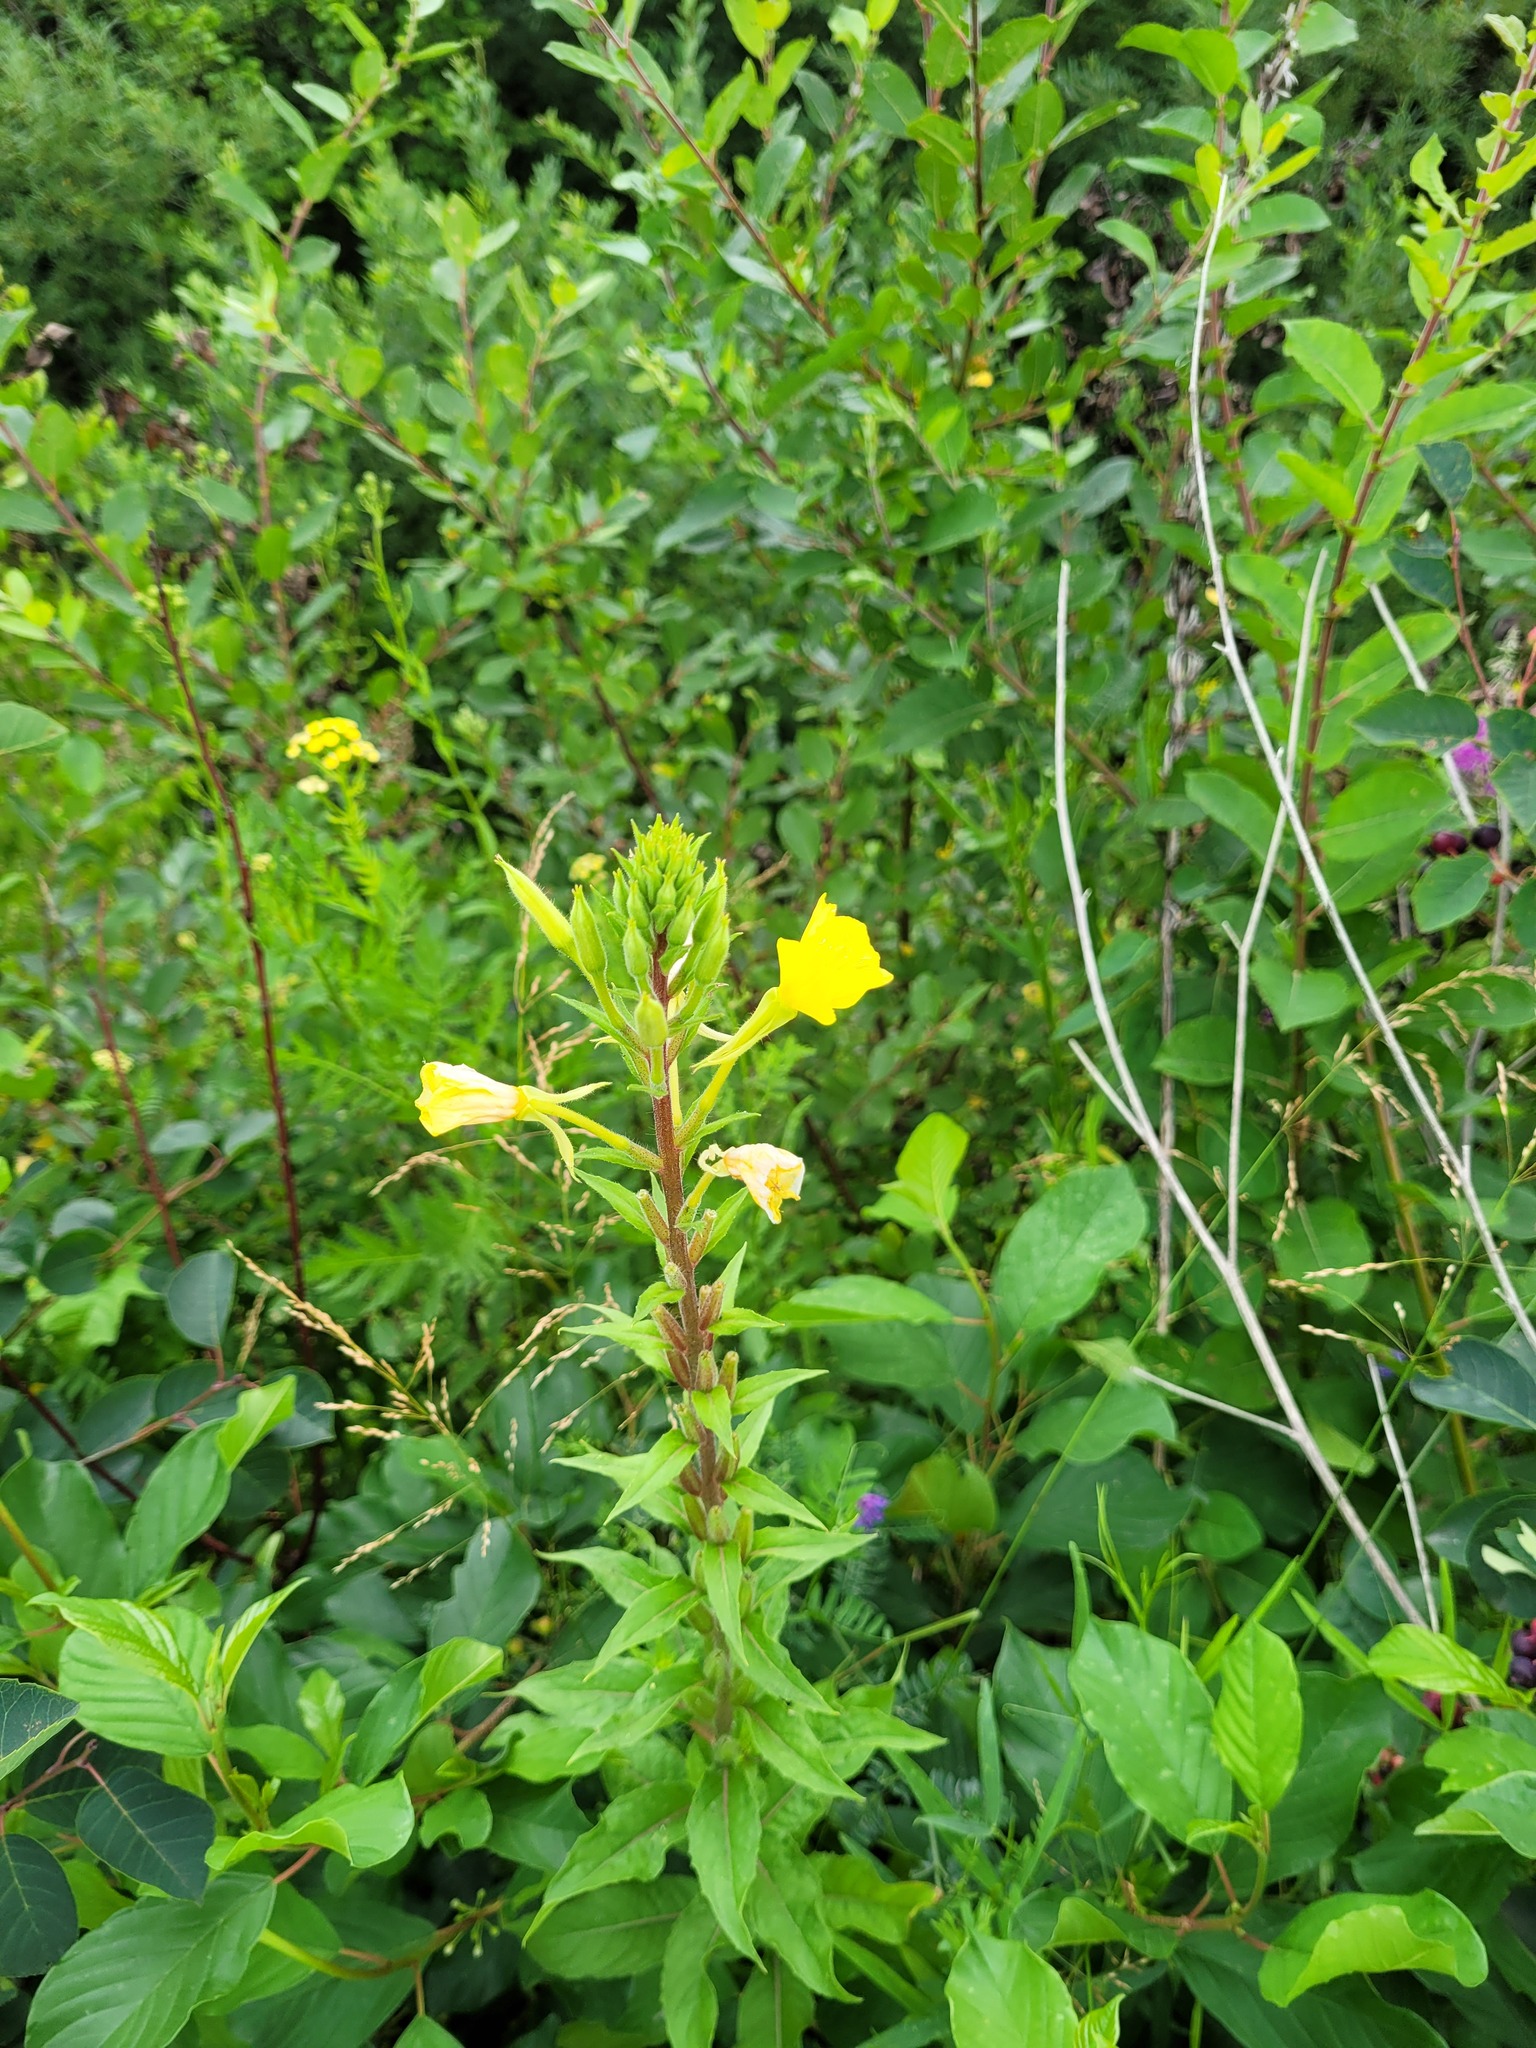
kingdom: Plantae
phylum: Tracheophyta
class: Magnoliopsida
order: Myrtales
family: Onagraceae
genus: Oenothera
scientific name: Oenothera rubricaulis
